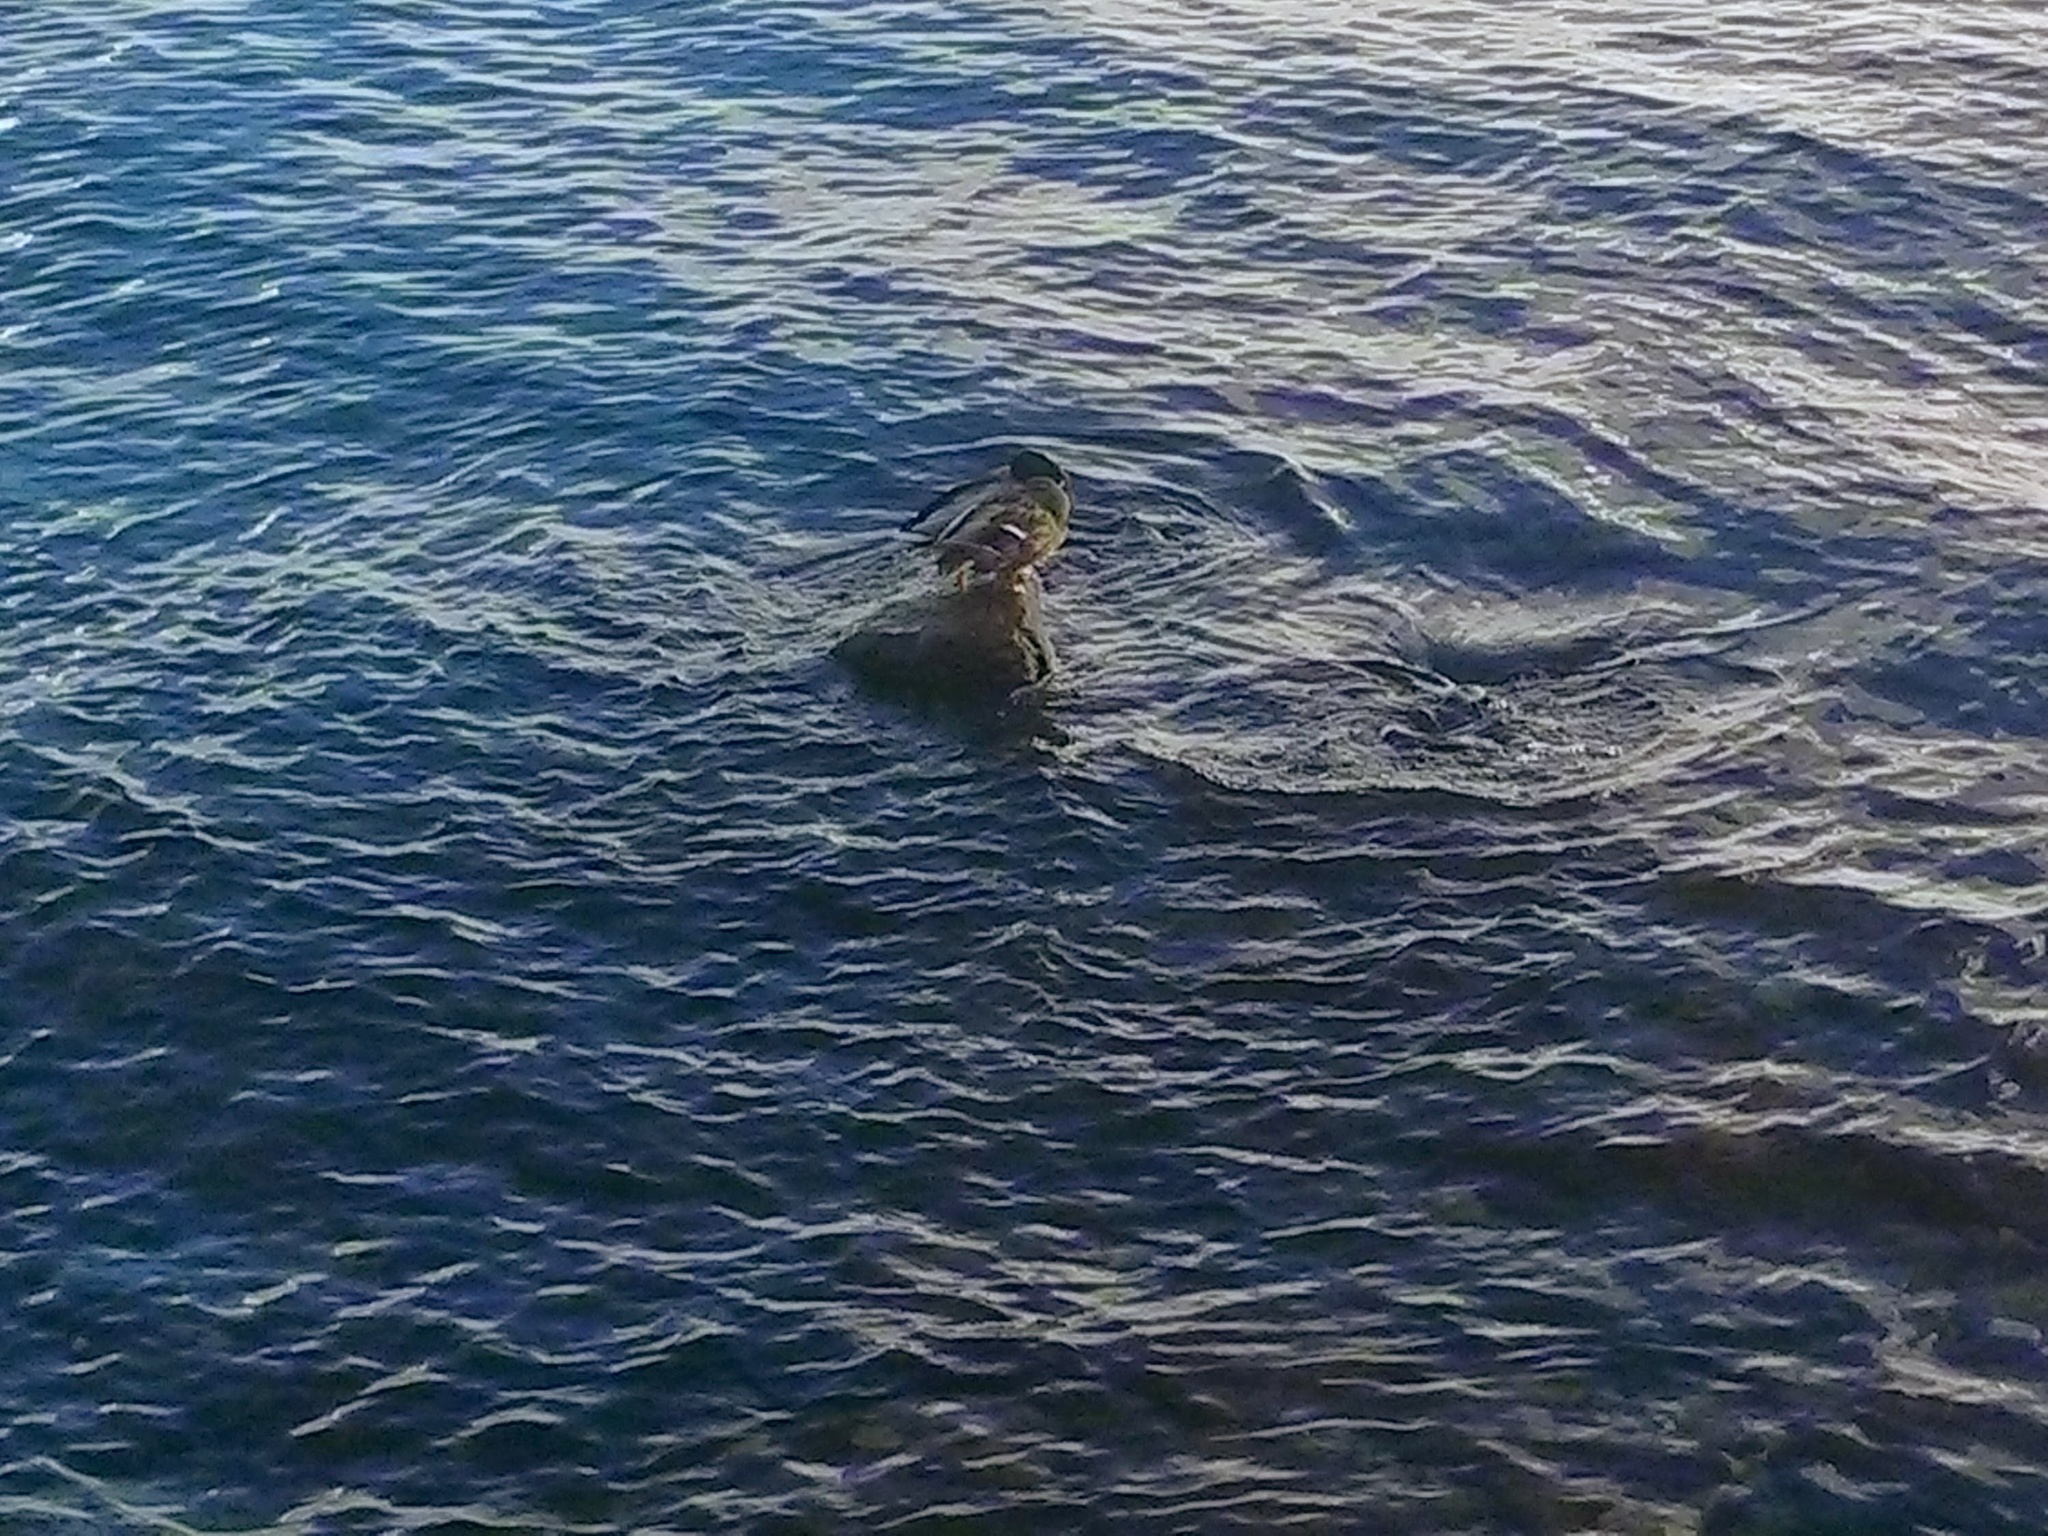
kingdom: Animalia
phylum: Chordata
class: Aves
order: Anseriformes
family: Anatidae
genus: Anas
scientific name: Anas platyrhynchos
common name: Mallard
